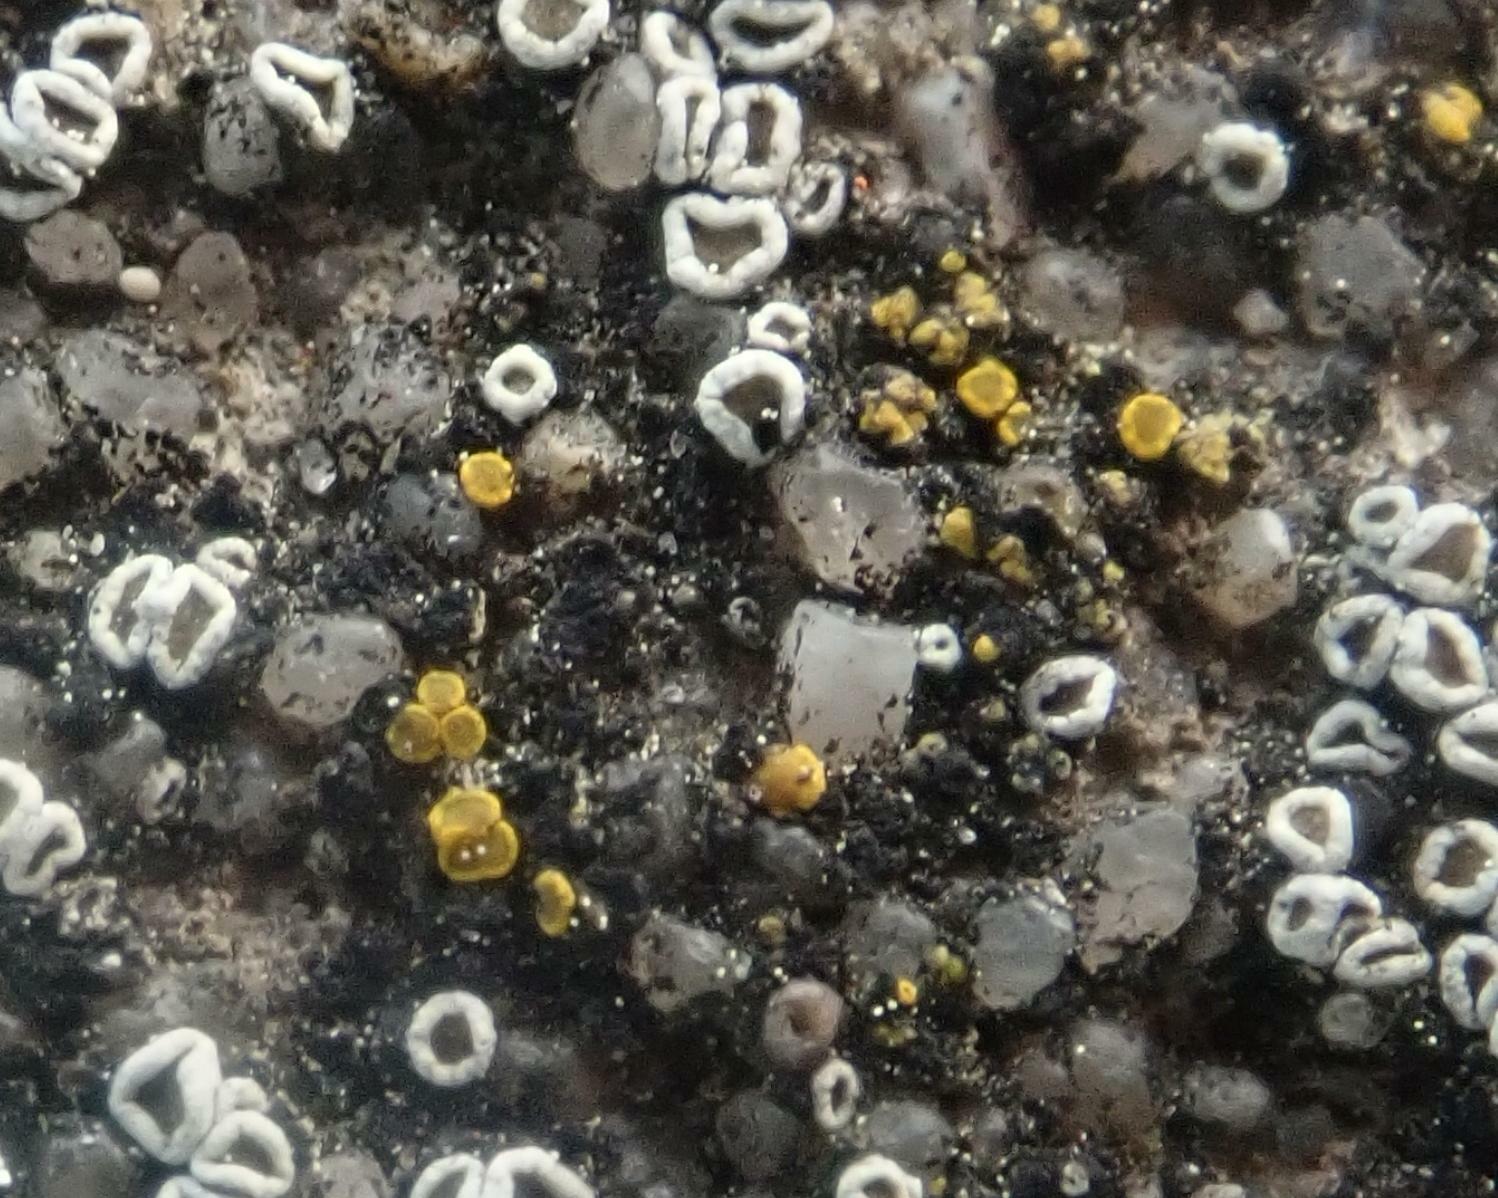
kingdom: Fungi
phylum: Ascomycota
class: Candelariomycetes
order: Candelariales
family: Candelariaceae
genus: Candelariella
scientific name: Candelariella aurella
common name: Hidden goldspeck lichen
